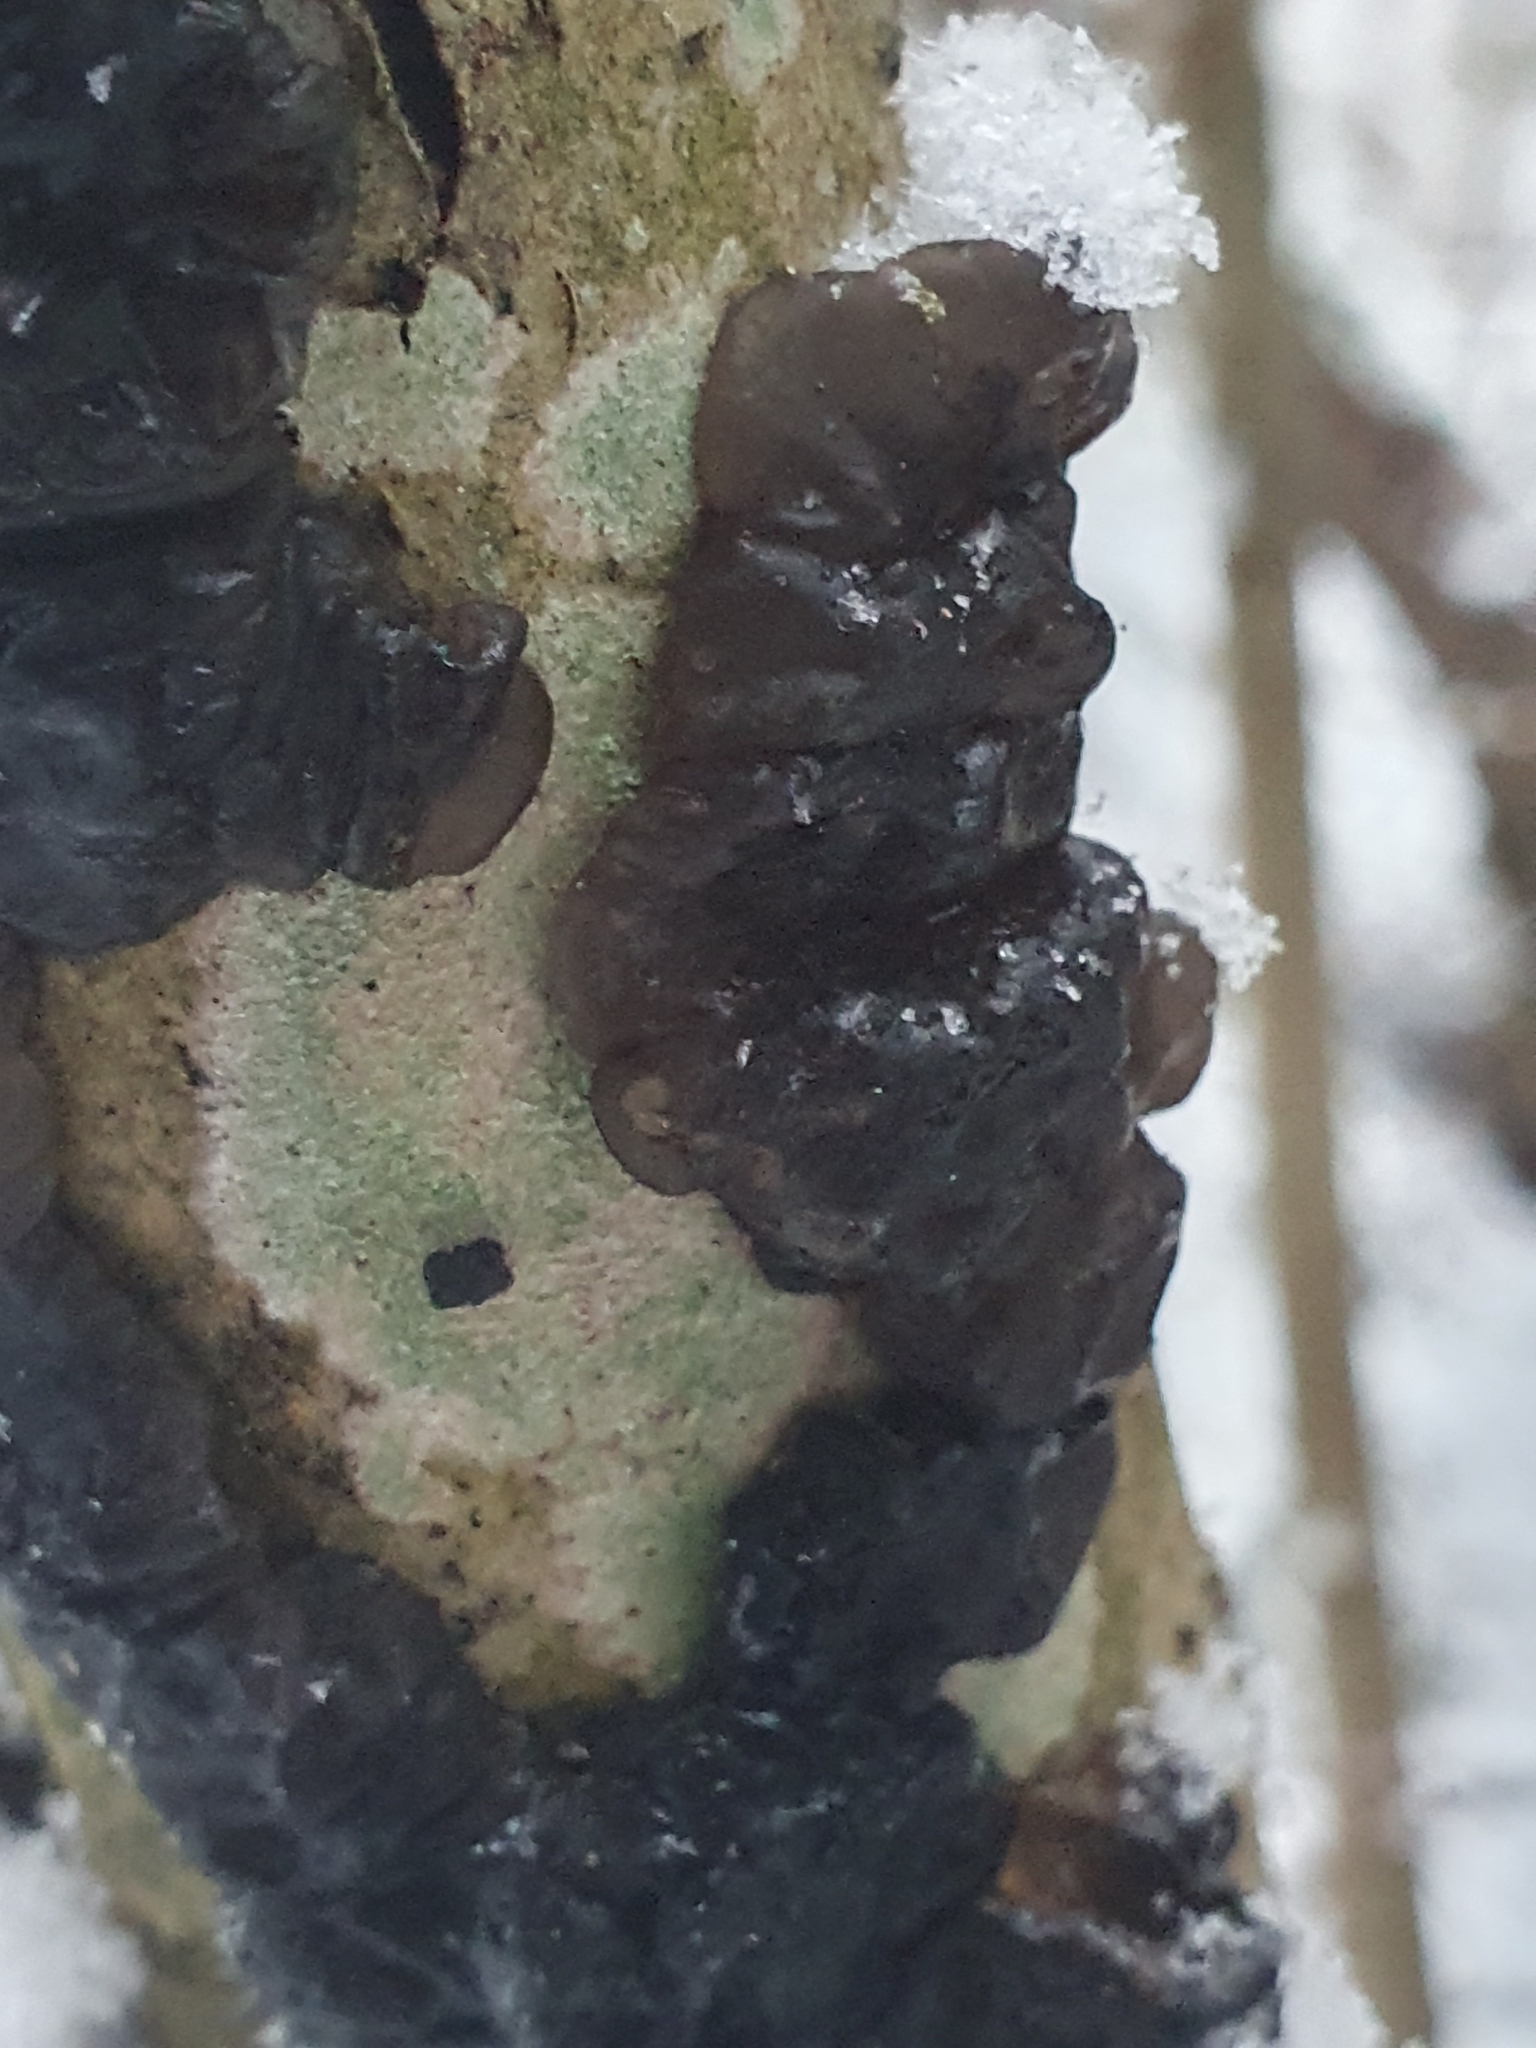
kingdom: Fungi
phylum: Basidiomycota
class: Agaricomycetes
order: Auriculariales
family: Auriculariaceae
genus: Exidia
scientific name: Exidia glandulosa
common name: Witches' butter
